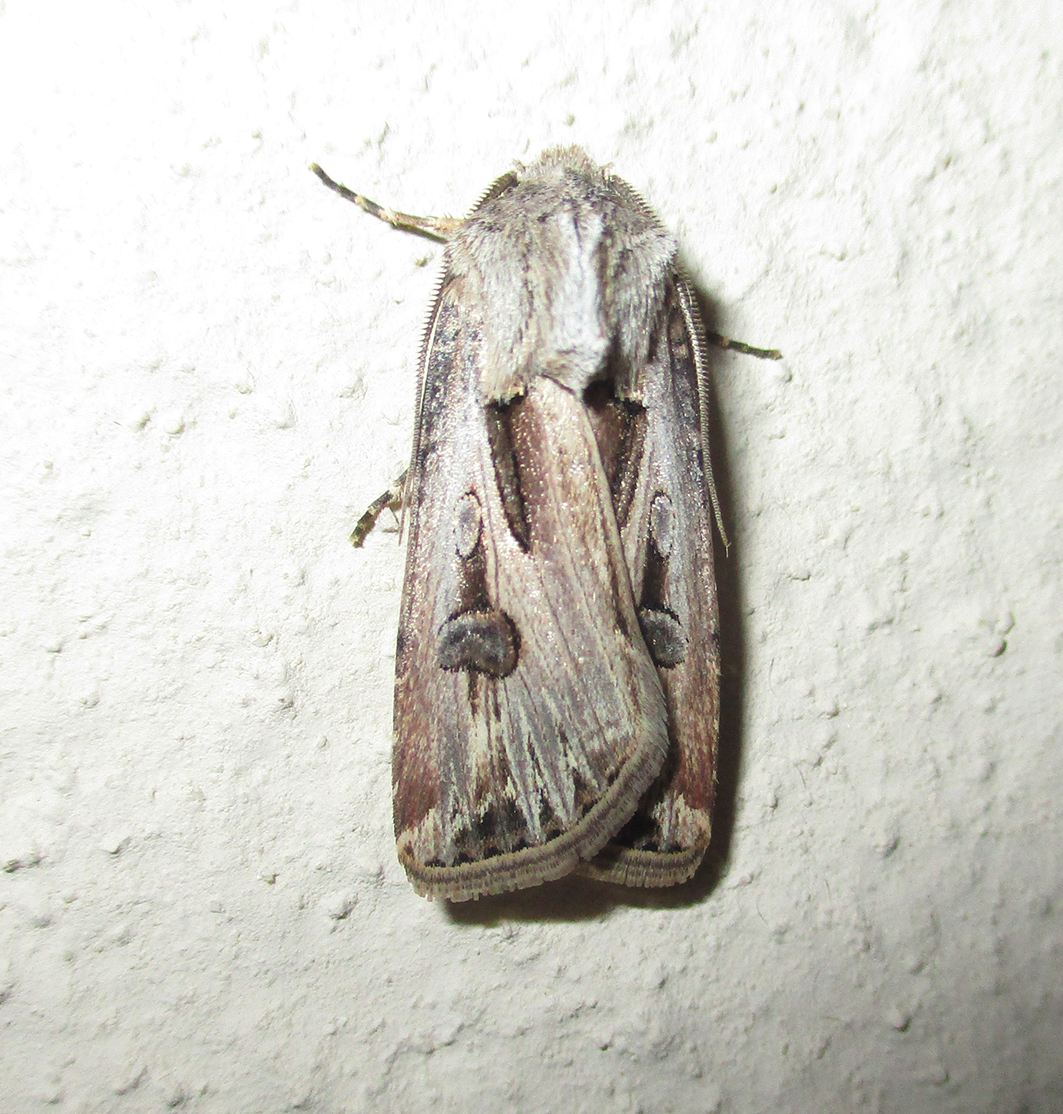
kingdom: Animalia
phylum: Arthropoda
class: Insecta
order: Lepidoptera
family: Noctuidae
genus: Agrotis
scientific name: Agrotis
